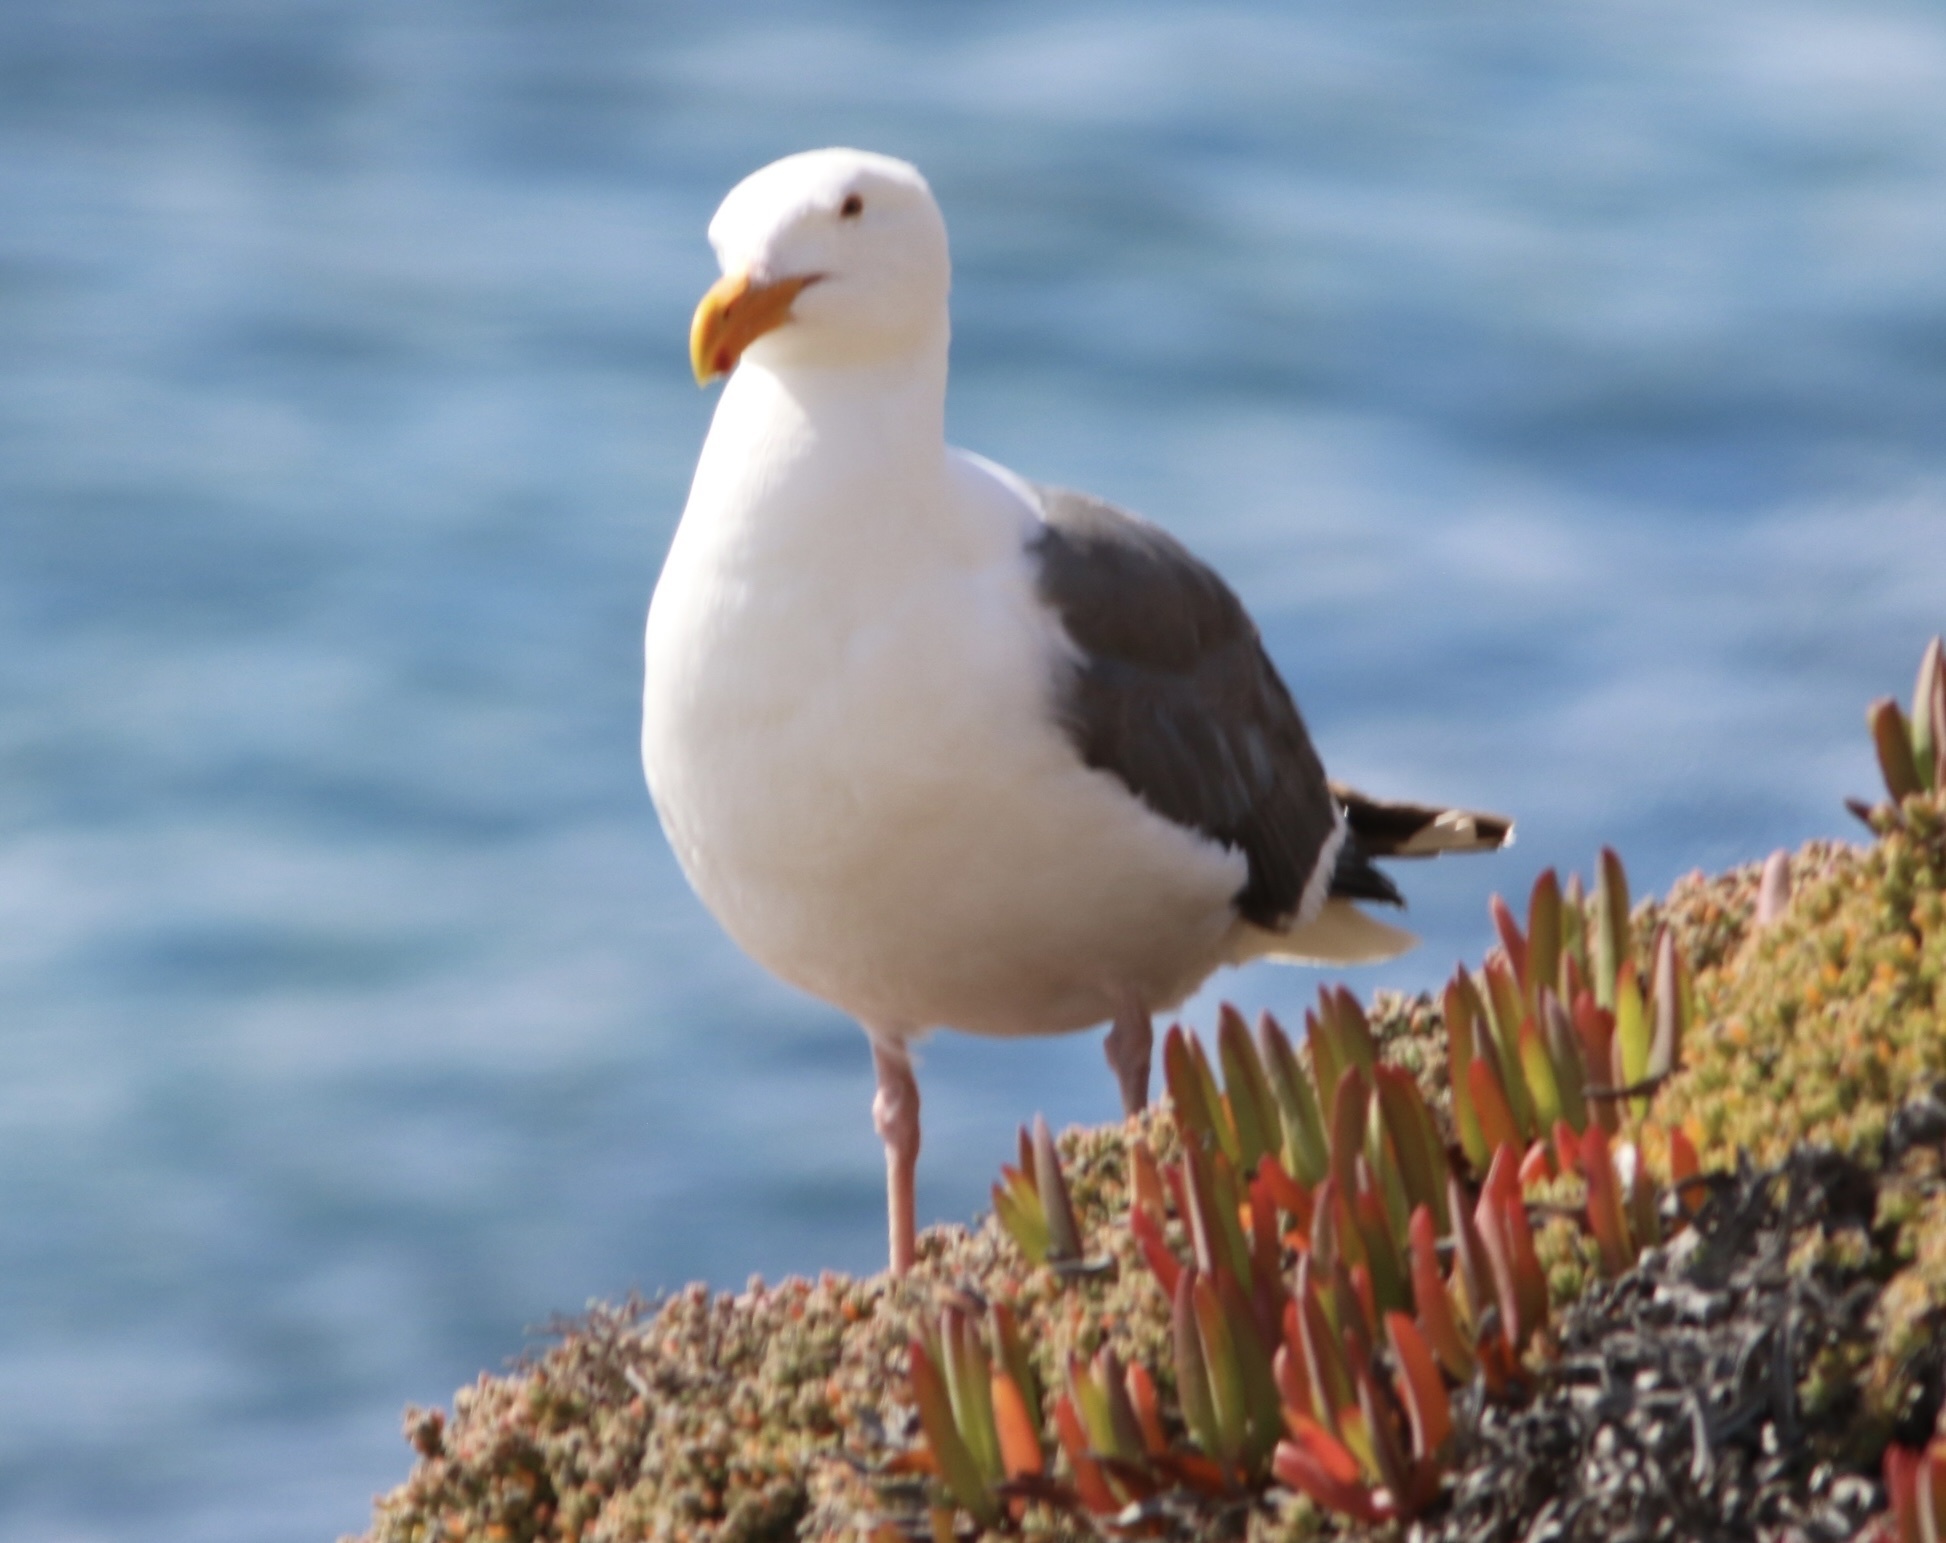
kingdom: Animalia
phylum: Chordata
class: Aves
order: Charadriiformes
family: Laridae
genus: Larus
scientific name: Larus occidentalis
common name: Western gull
